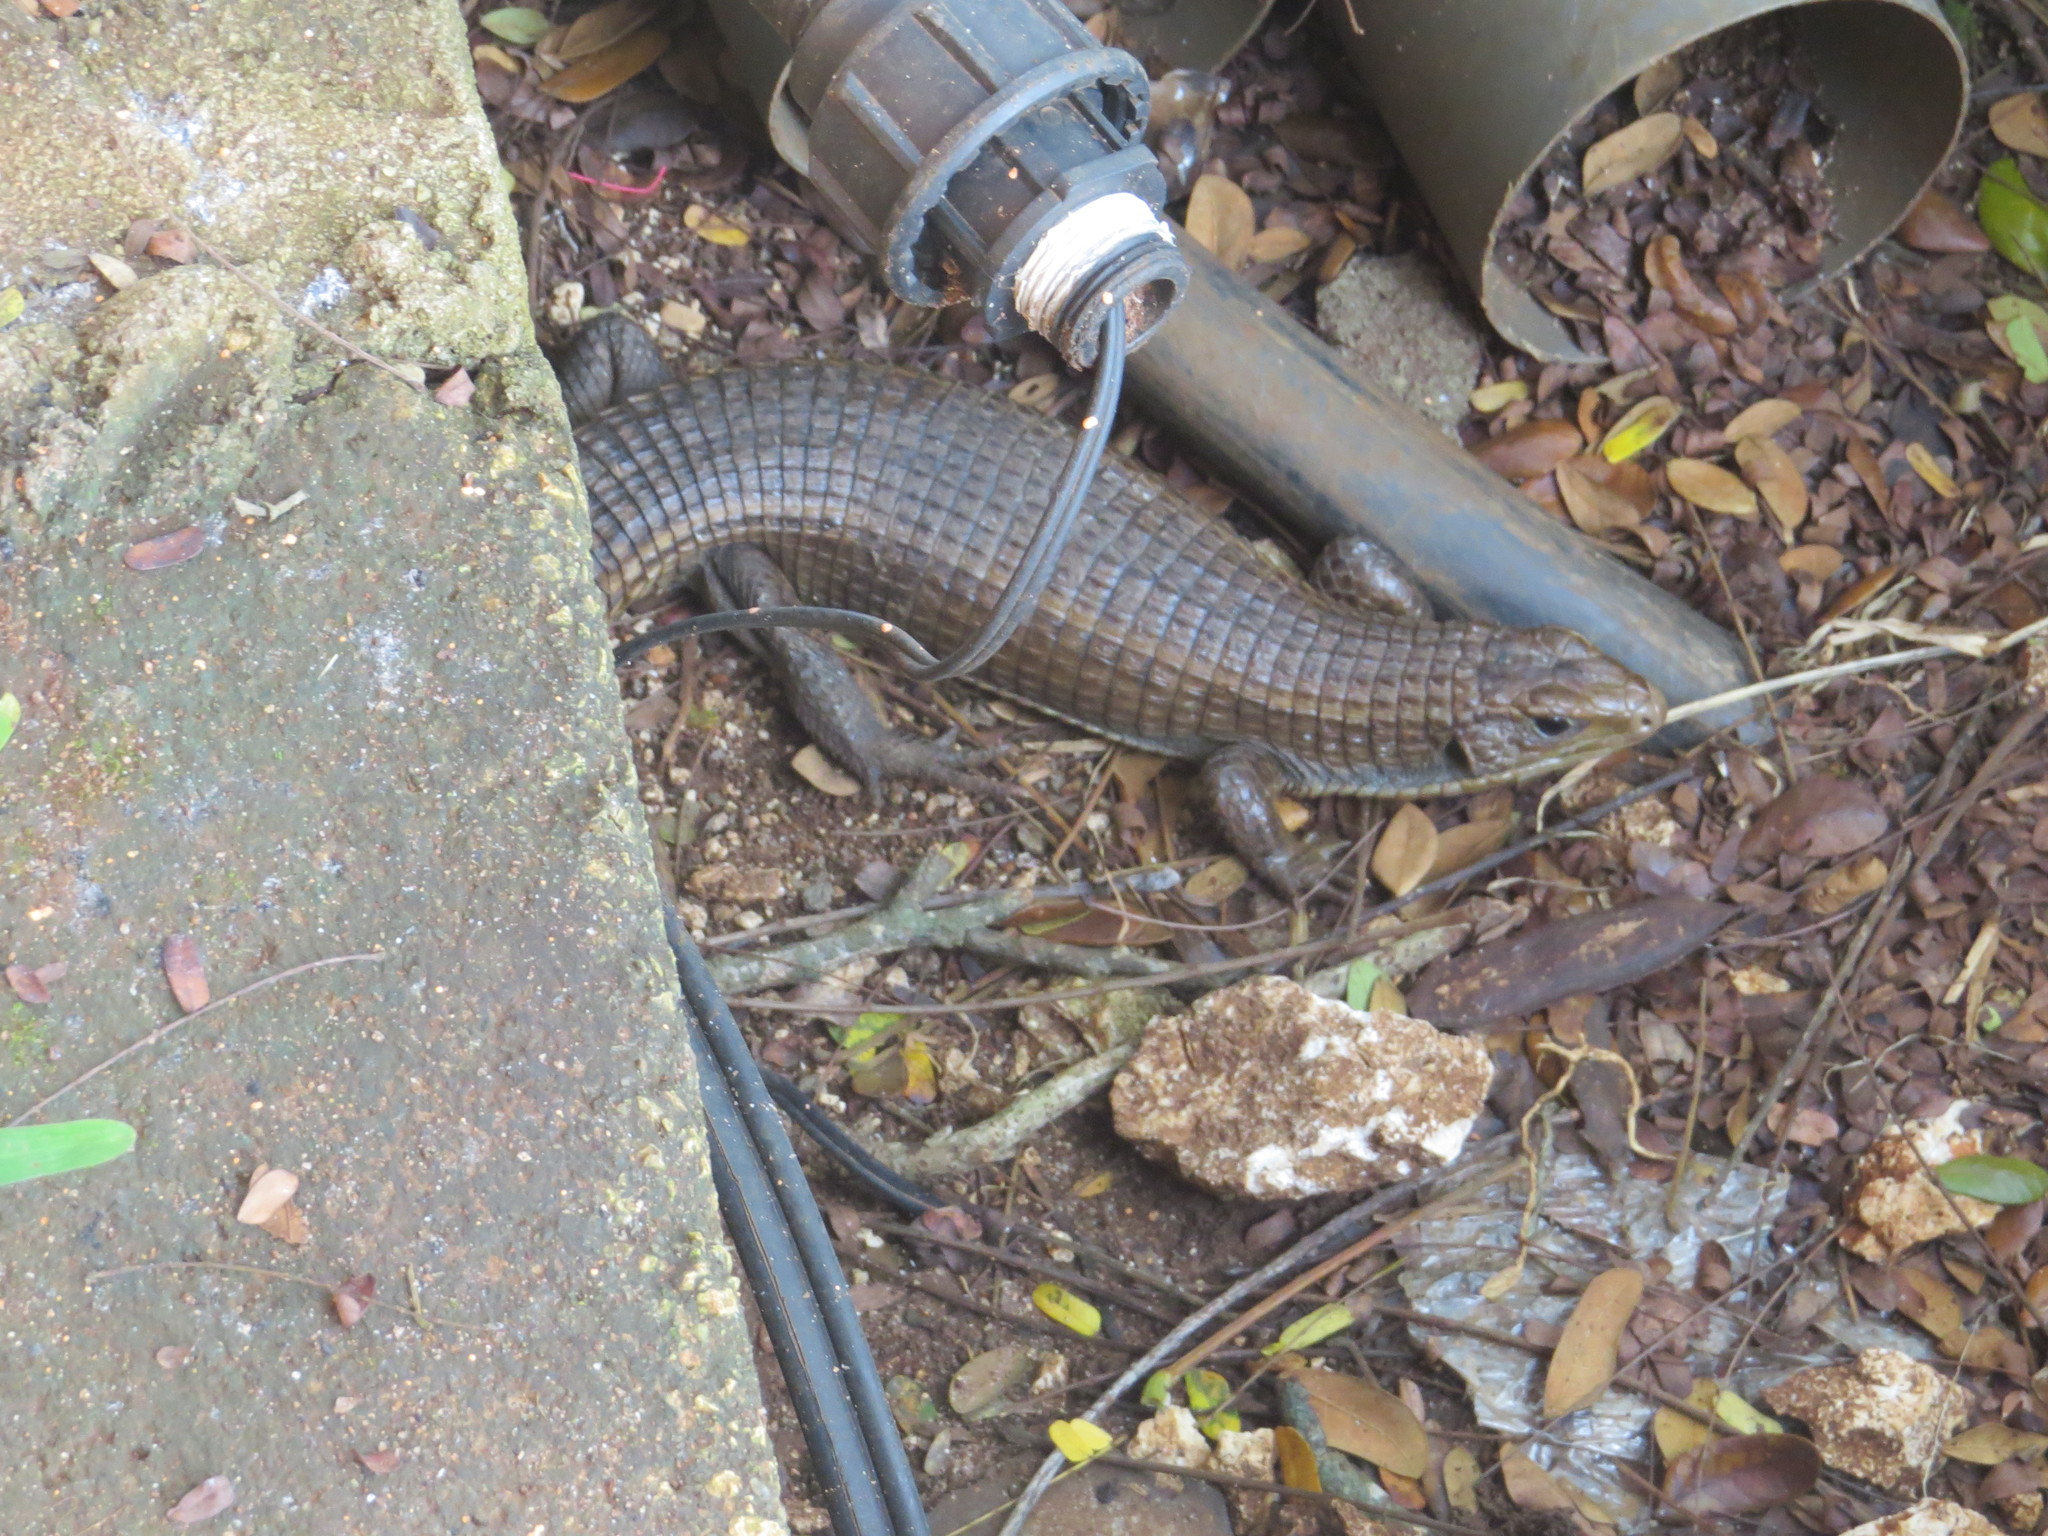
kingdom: Animalia
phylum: Chordata
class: Squamata
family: Gerrhosauridae
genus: Broadleysaurus
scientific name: Broadleysaurus major
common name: Rough-scaled plated lizard
